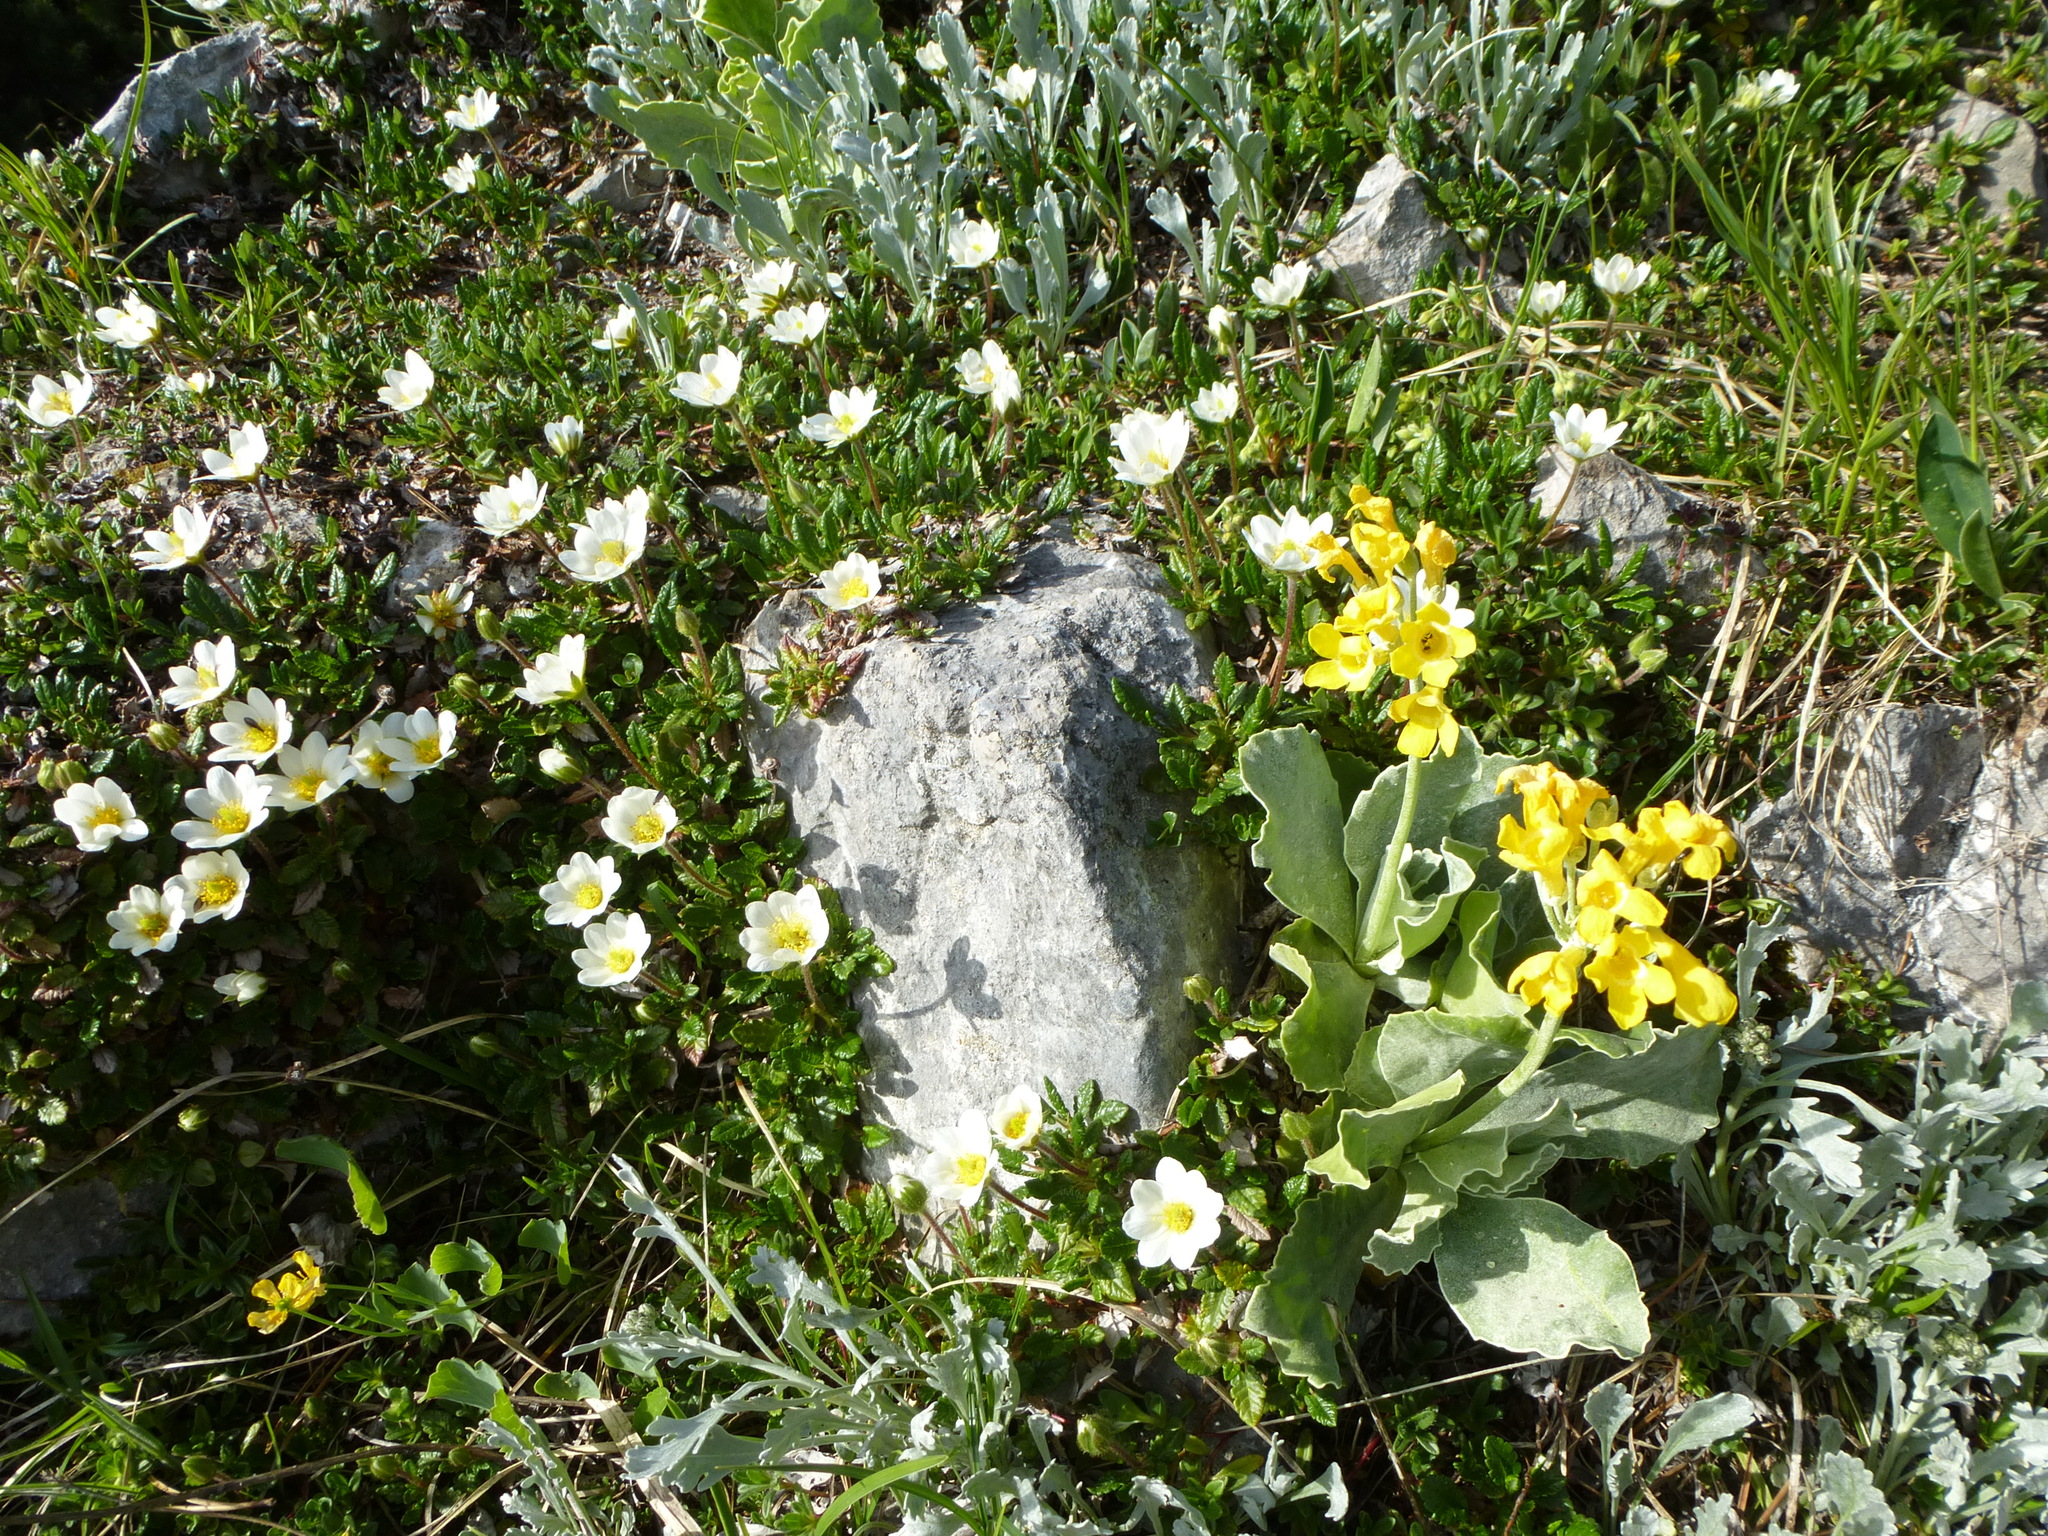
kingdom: Plantae
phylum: Tracheophyta
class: Magnoliopsida
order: Rosales
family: Rosaceae
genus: Dryas
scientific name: Dryas octopetala
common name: Eight-petal mountain-avens
